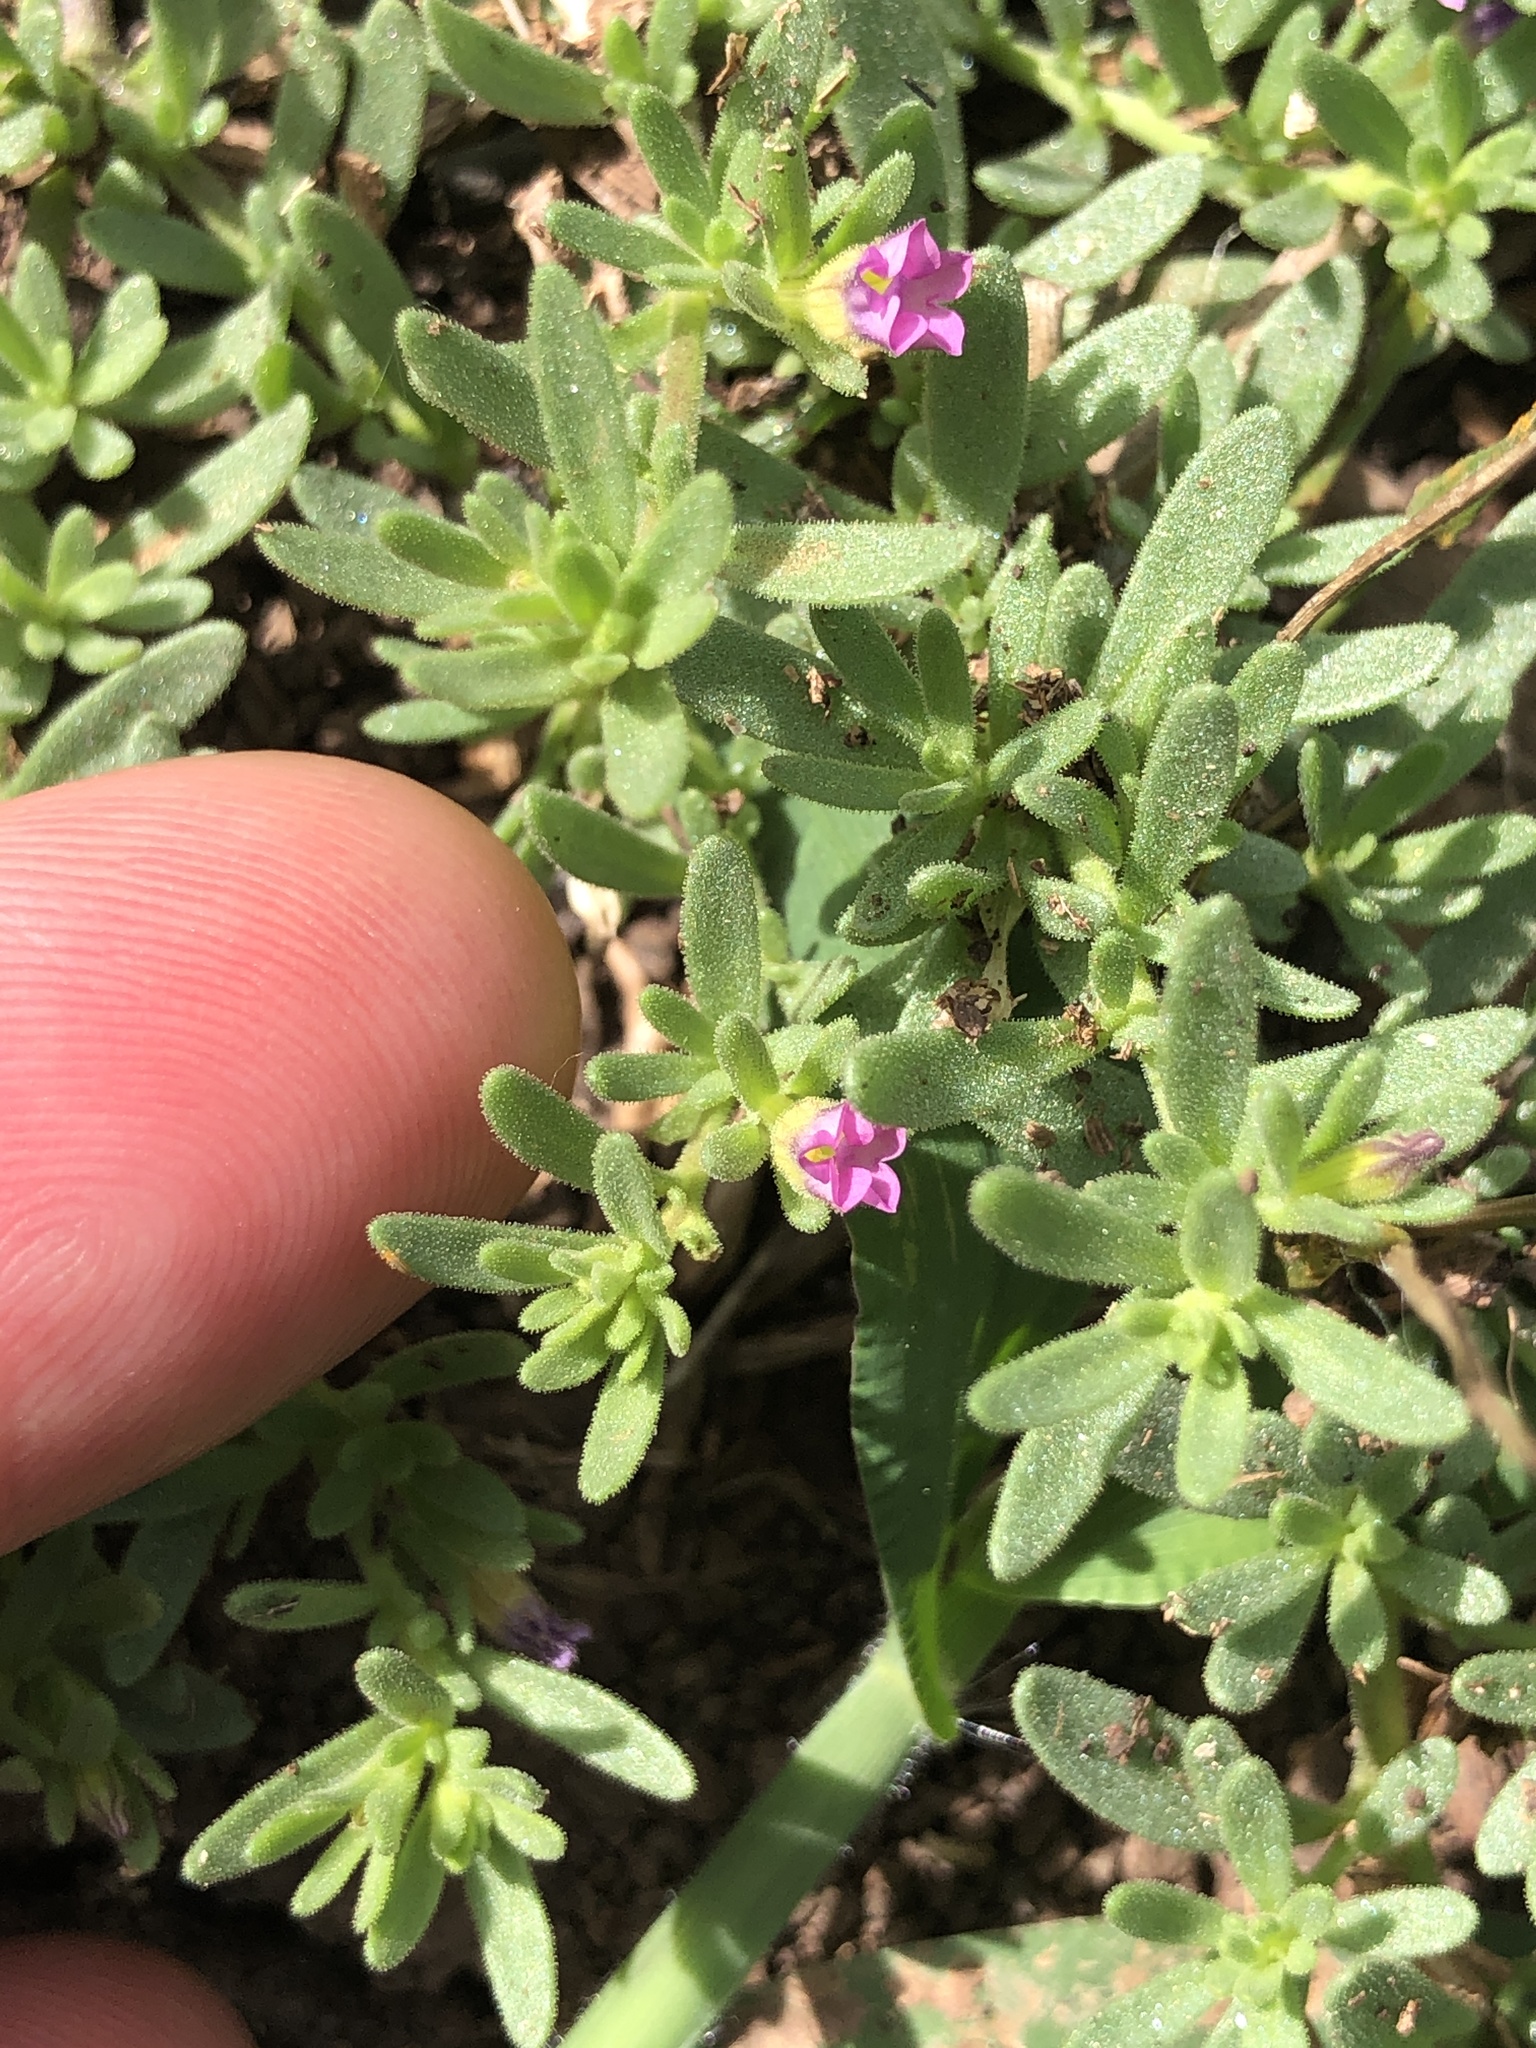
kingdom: Plantae
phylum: Tracheophyta
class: Magnoliopsida
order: Solanales
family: Solanaceae
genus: Calibrachoa
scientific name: Calibrachoa parviflora
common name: Seaside petunia
